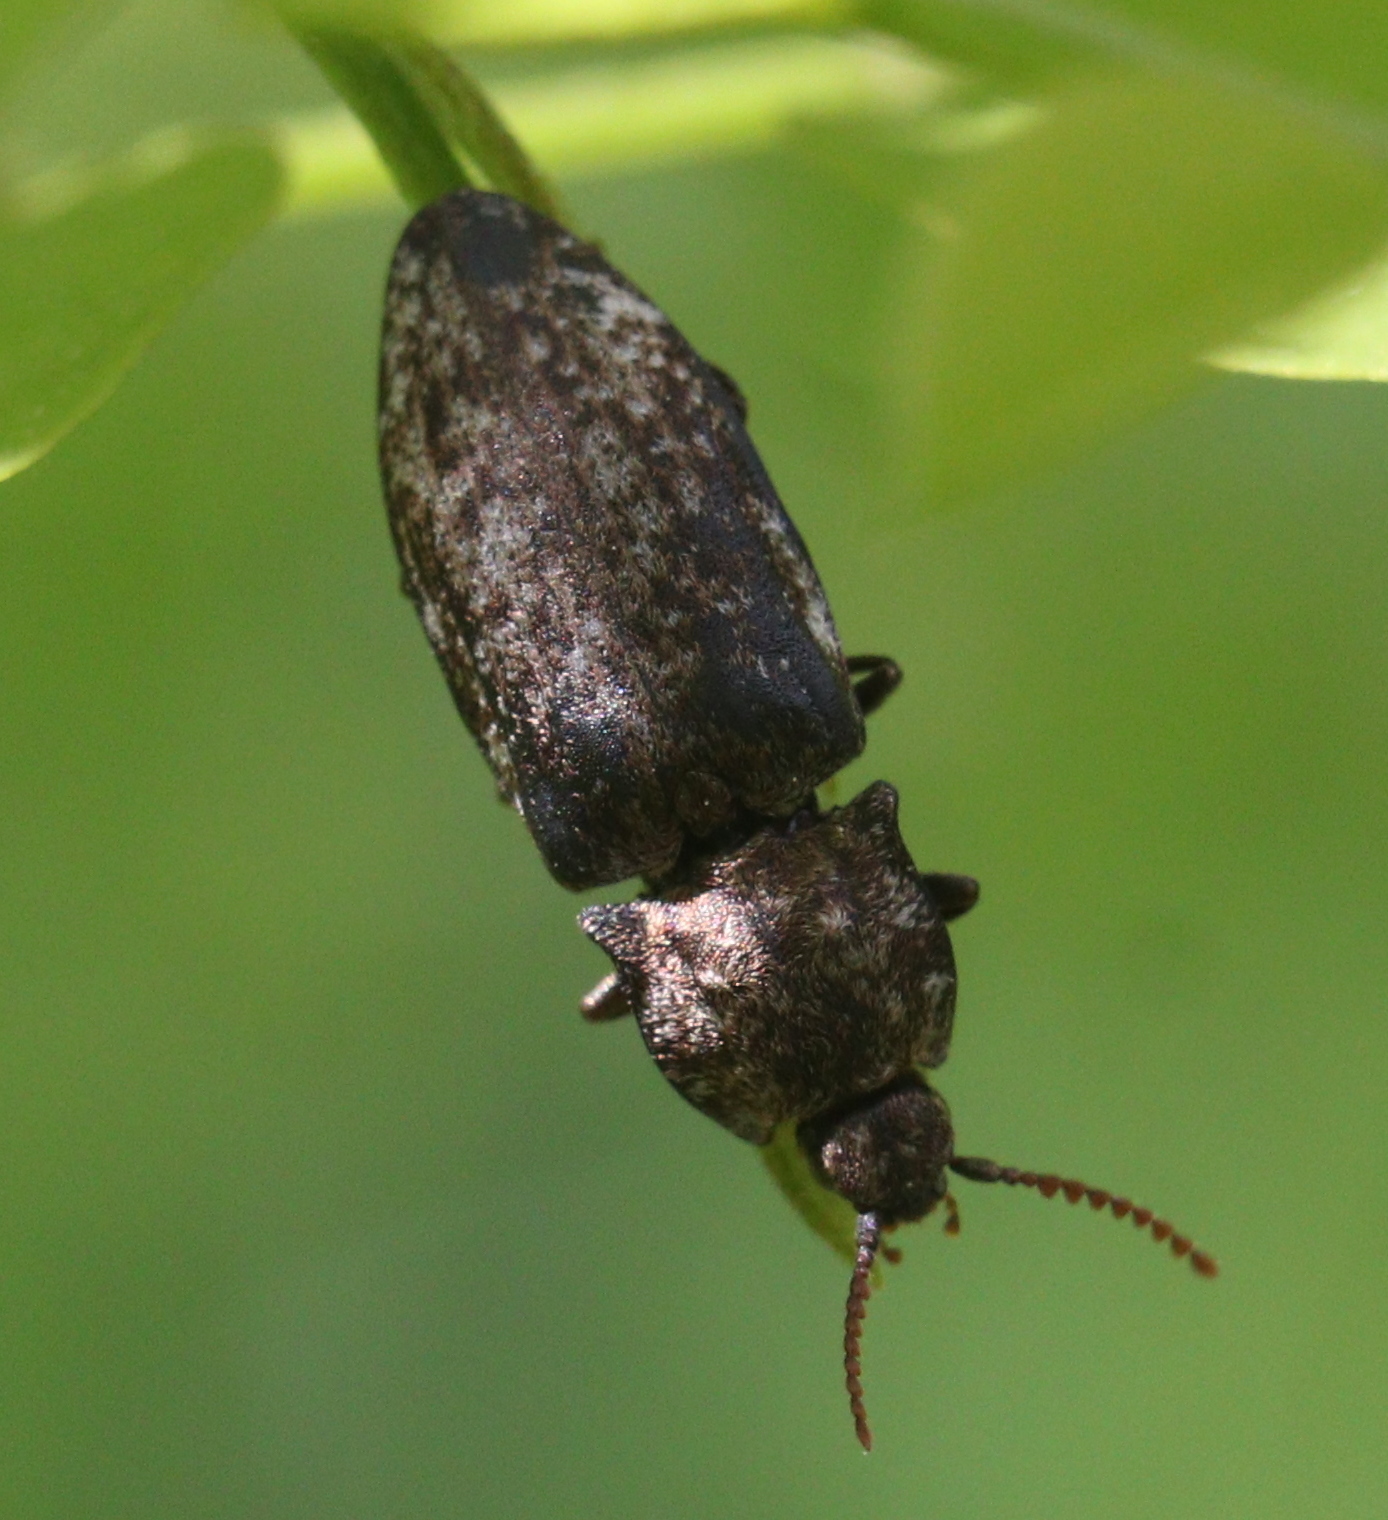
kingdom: Animalia
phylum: Arthropoda
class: Insecta
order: Coleoptera
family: Elateridae
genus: Agrypnus
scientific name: Agrypnus murinus
